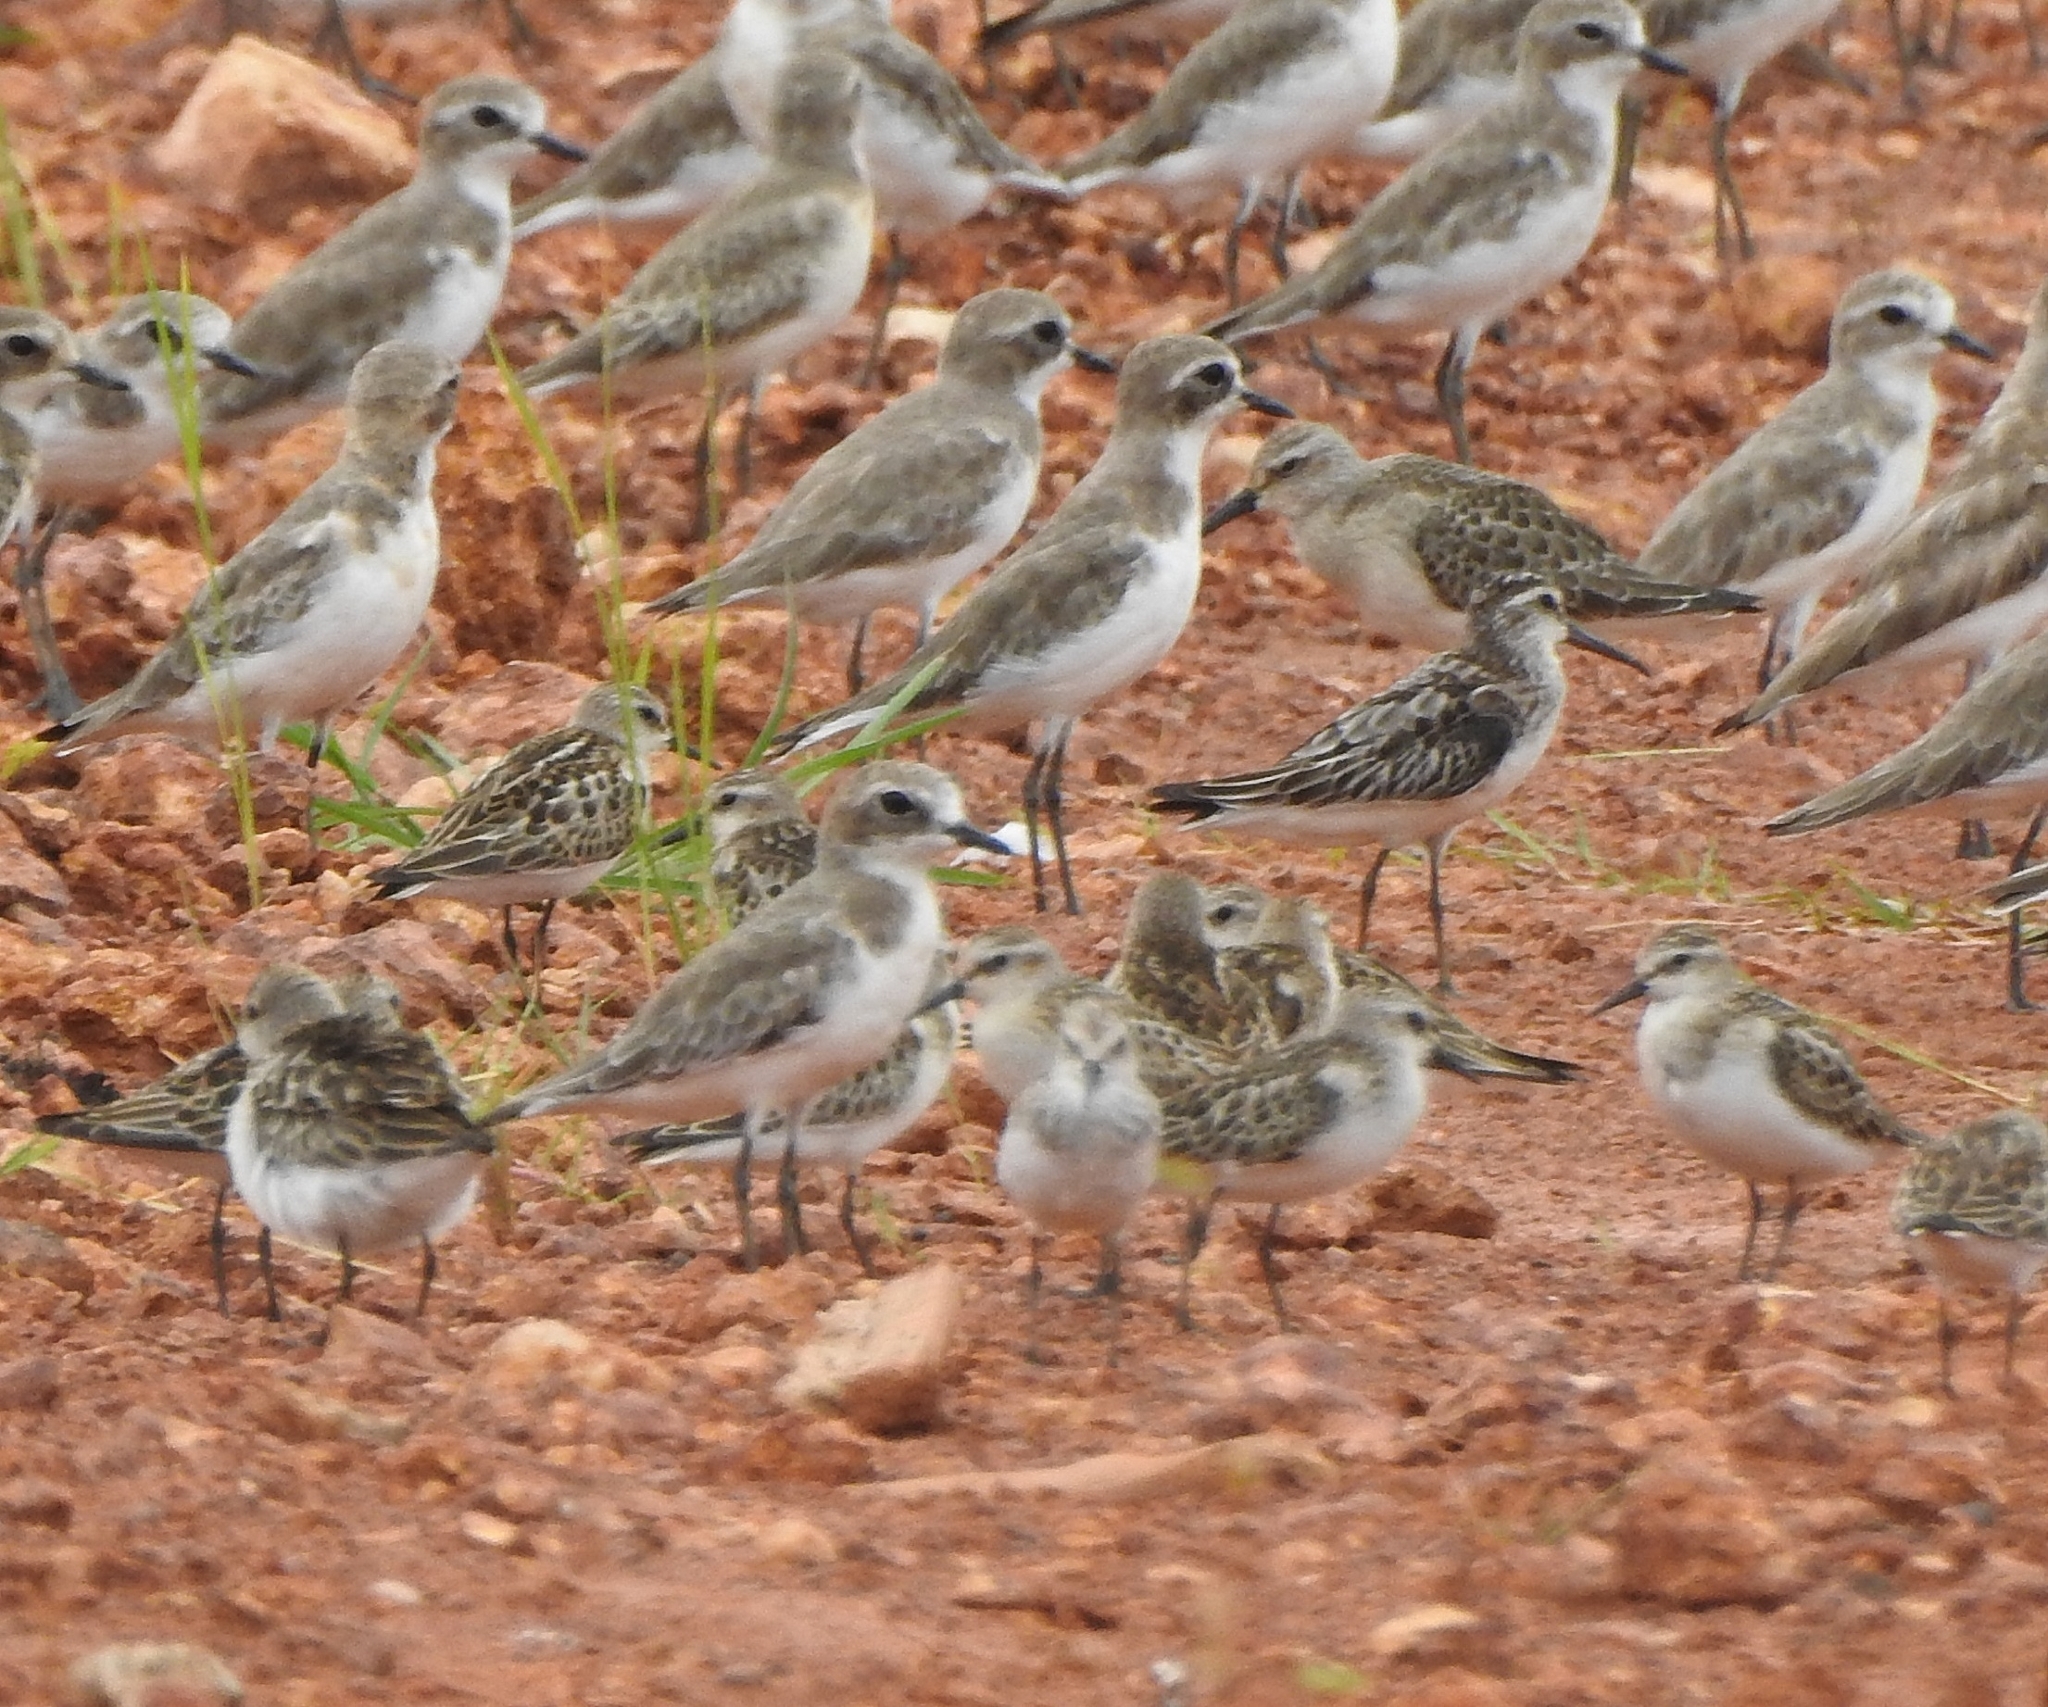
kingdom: Animalia
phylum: Chordata
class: Aves
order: Charadriiformes
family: Scolopacidae
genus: Calidris
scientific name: Calidris falcinellus
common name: Broad-billed sandpiper
